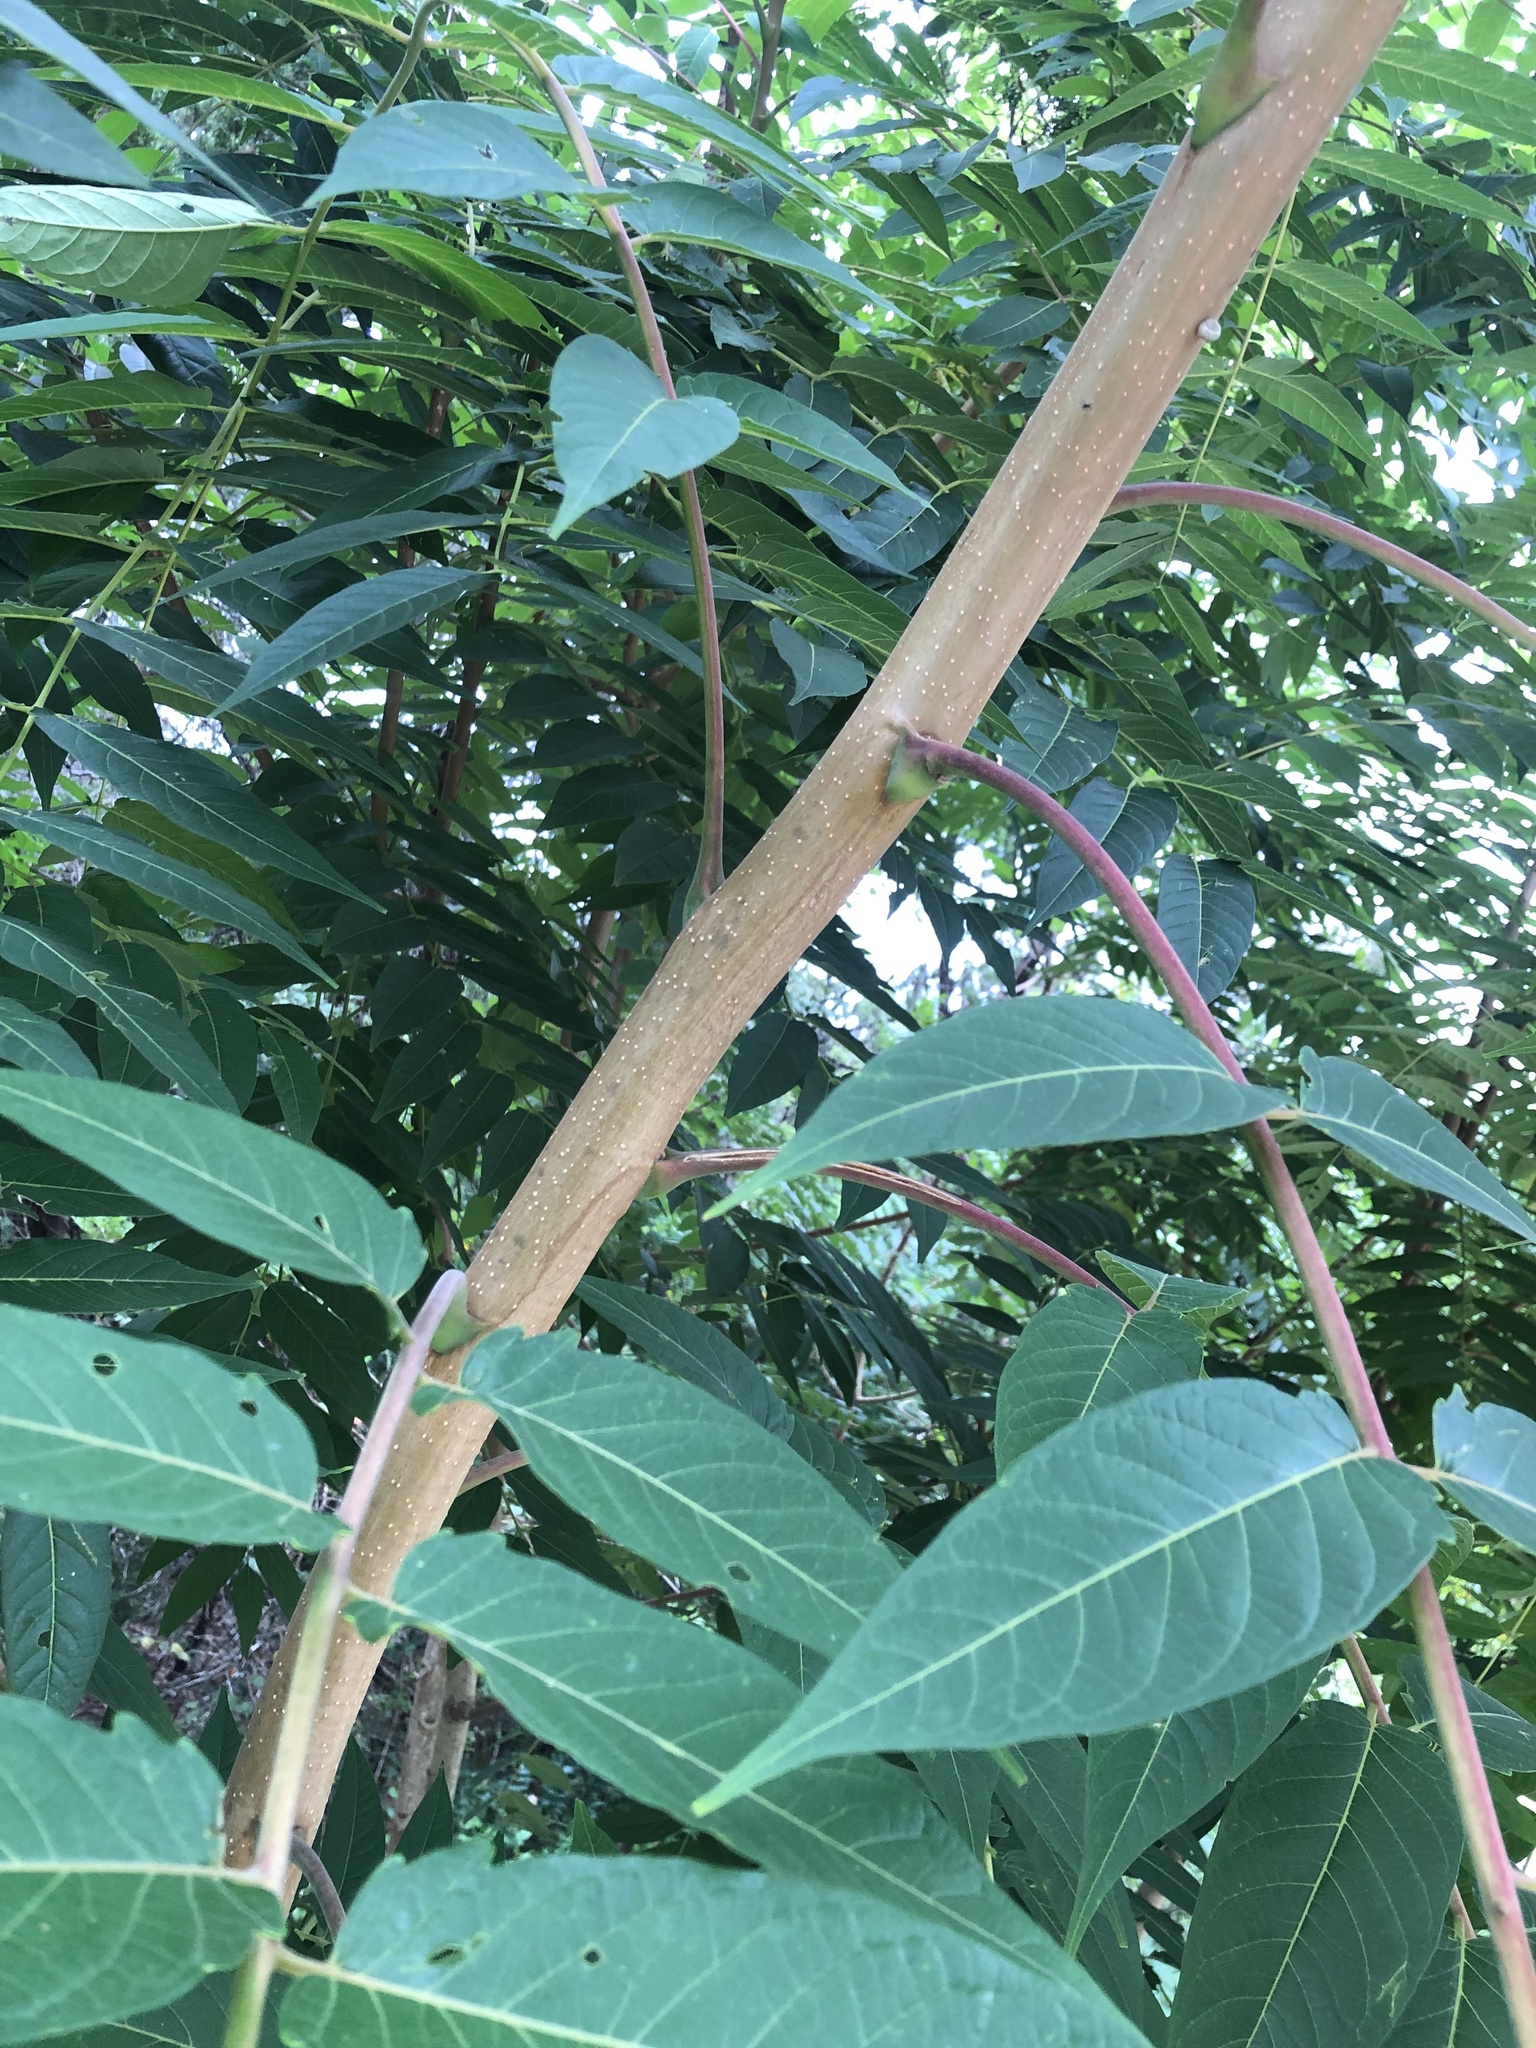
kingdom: Plantae
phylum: Tracheophyta
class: Magnoliopsida
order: Sapindales
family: Simaroubaceae
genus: Ailanthus
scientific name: Ailanthus altissima
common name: Tree-of-heaven
